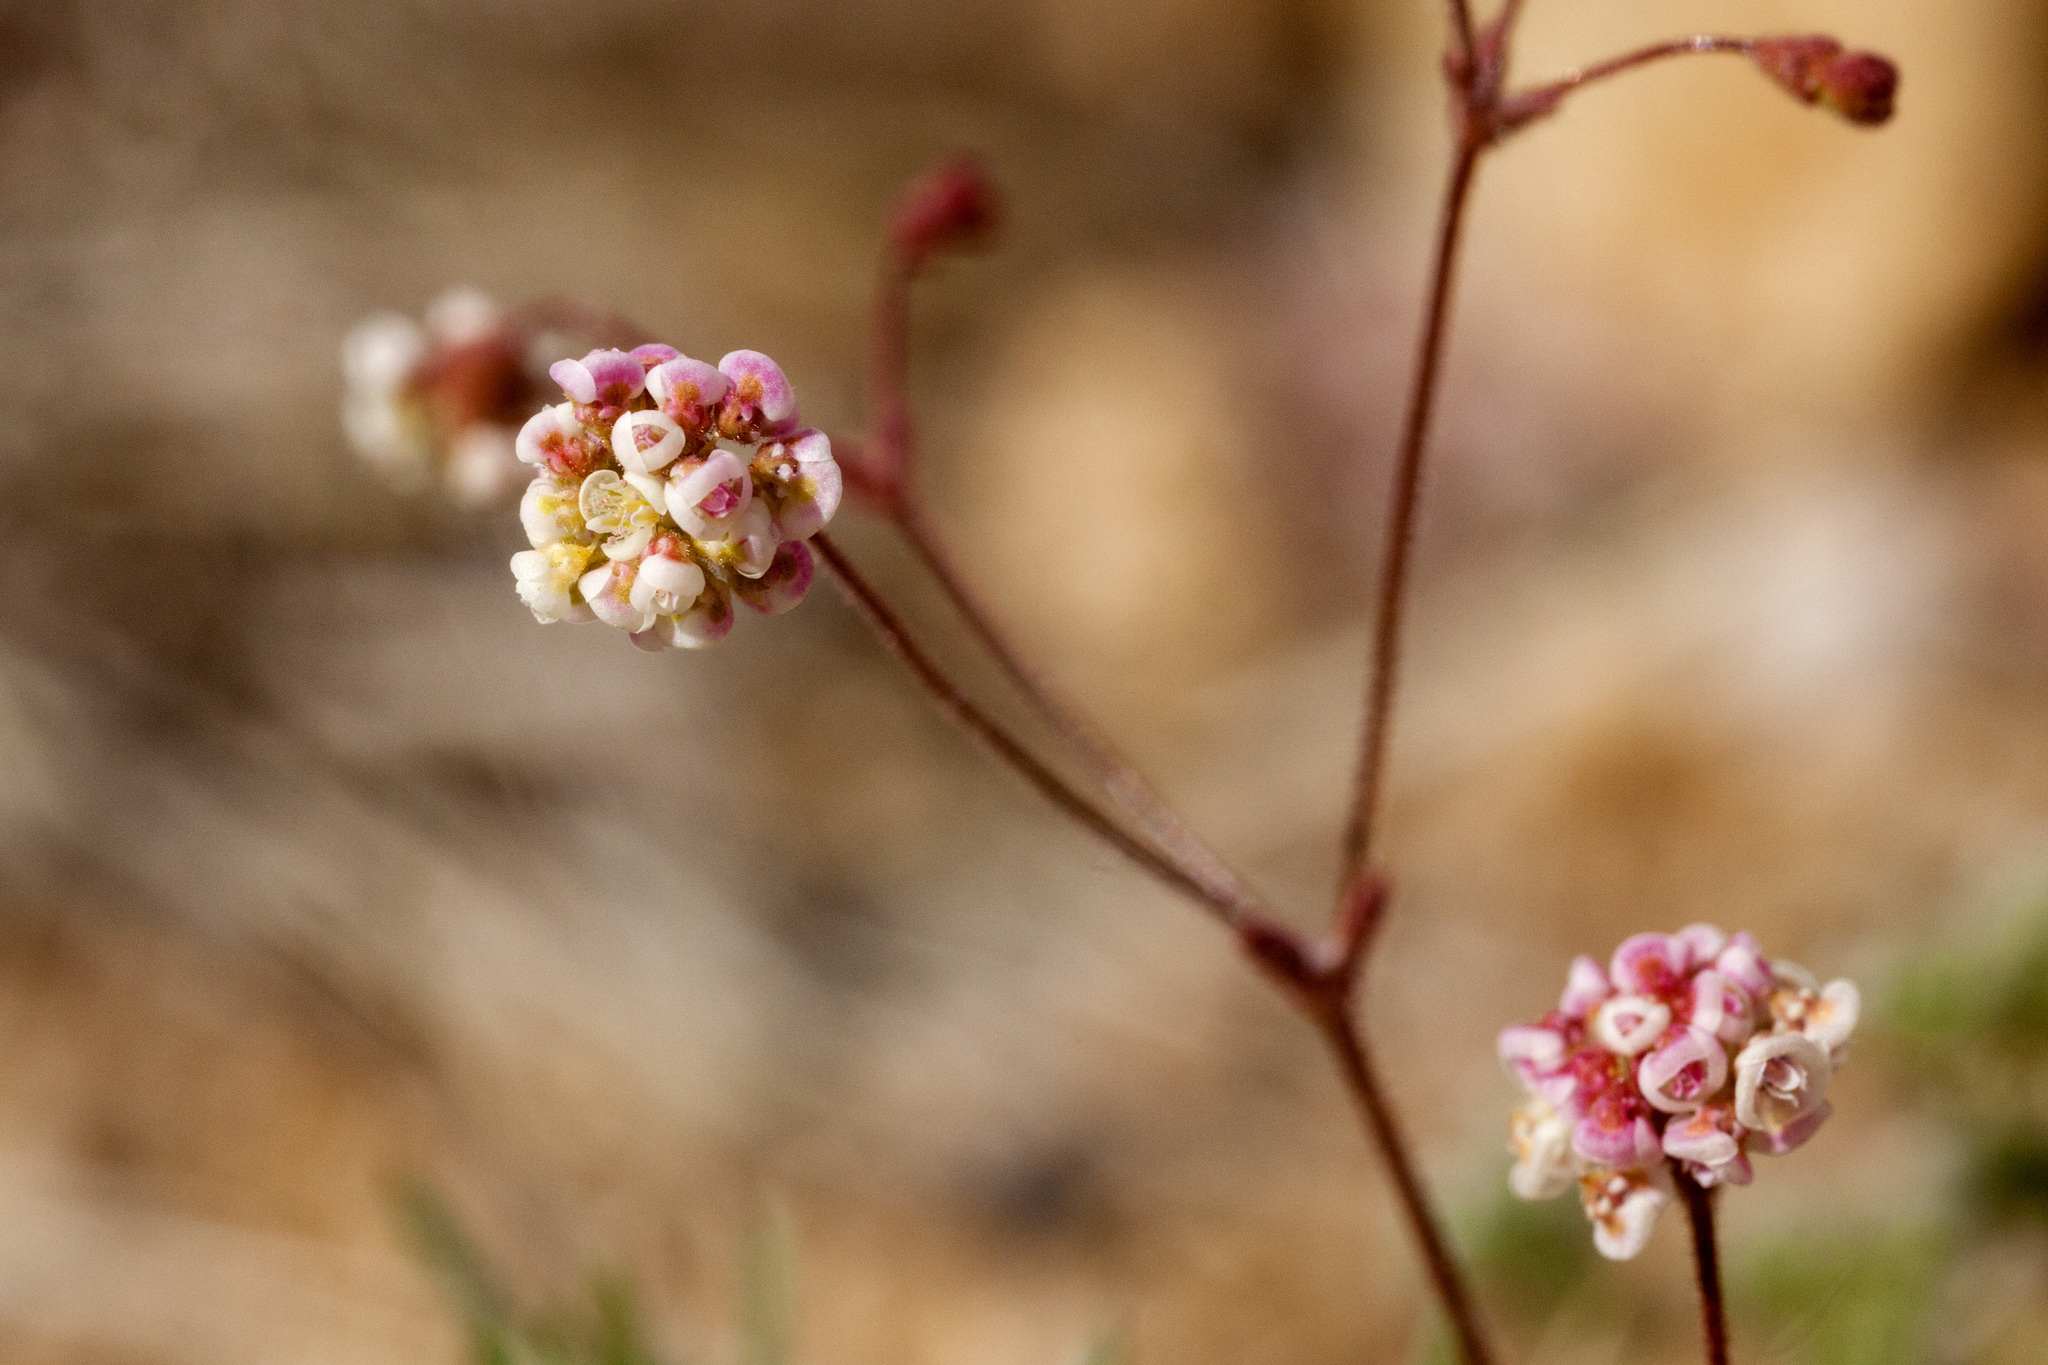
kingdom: Plantae
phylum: Tracheophyta
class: Magnoliopsida
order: Caryophyllales
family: Polygonaceae
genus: Eriogonum
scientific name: Eriogonum thurberi
